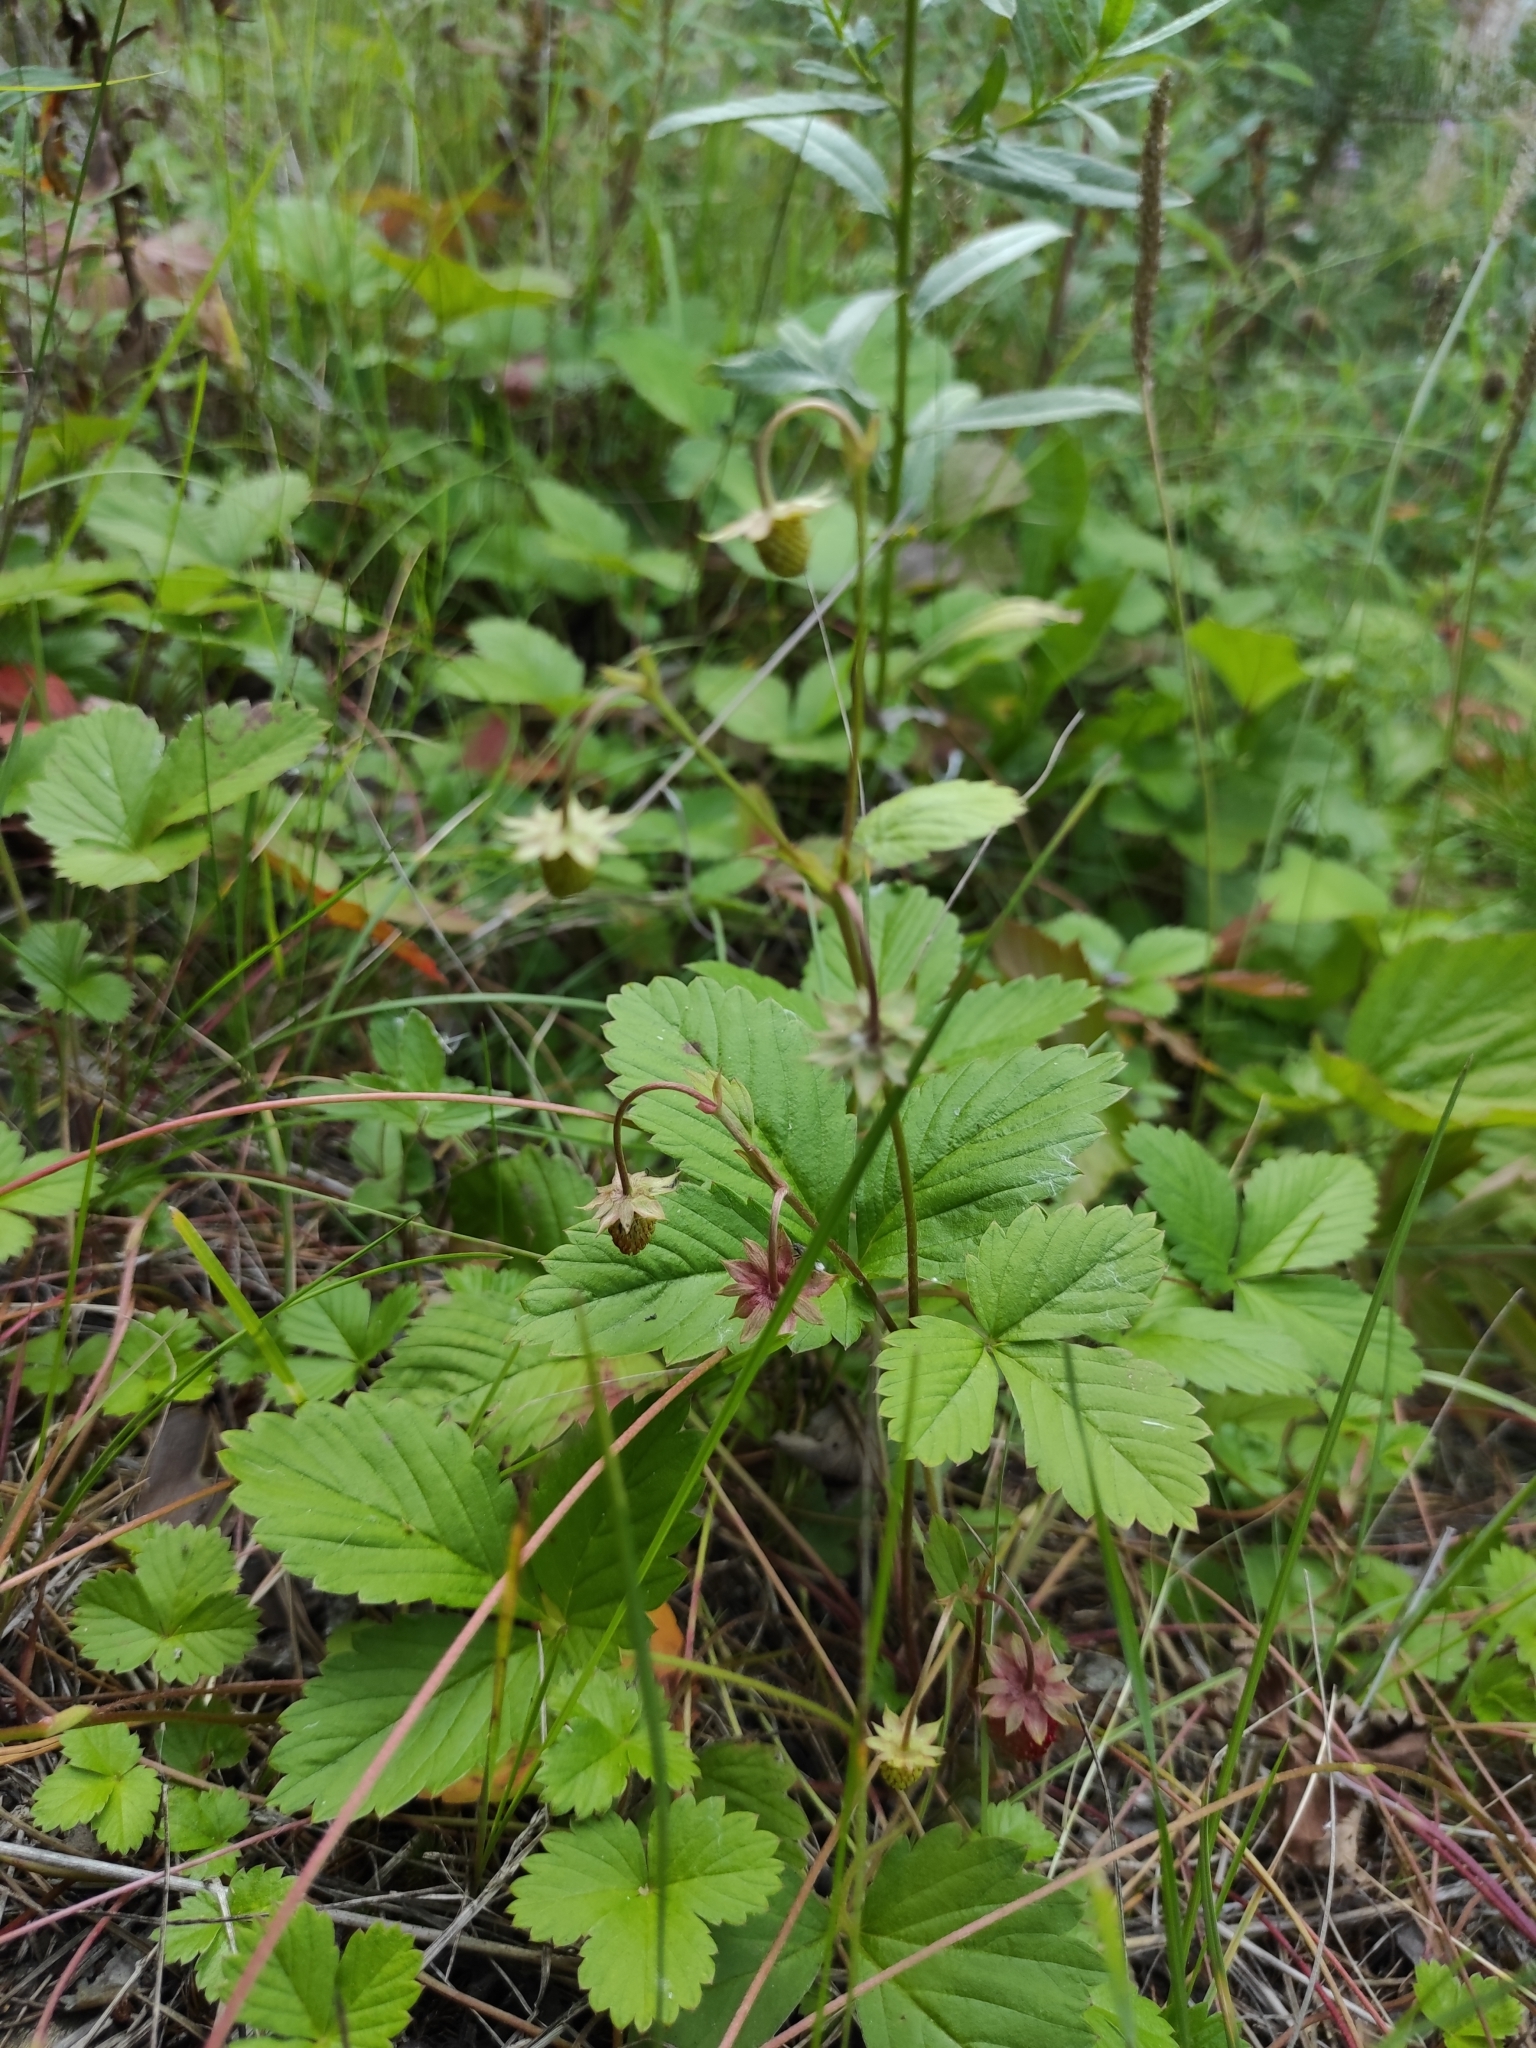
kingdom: Plantae
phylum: Tracheophyta
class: Magnoliopsida
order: Rosales
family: Rosaceae
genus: Fragaria
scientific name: Fragaria vesca
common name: Wild strawberry
